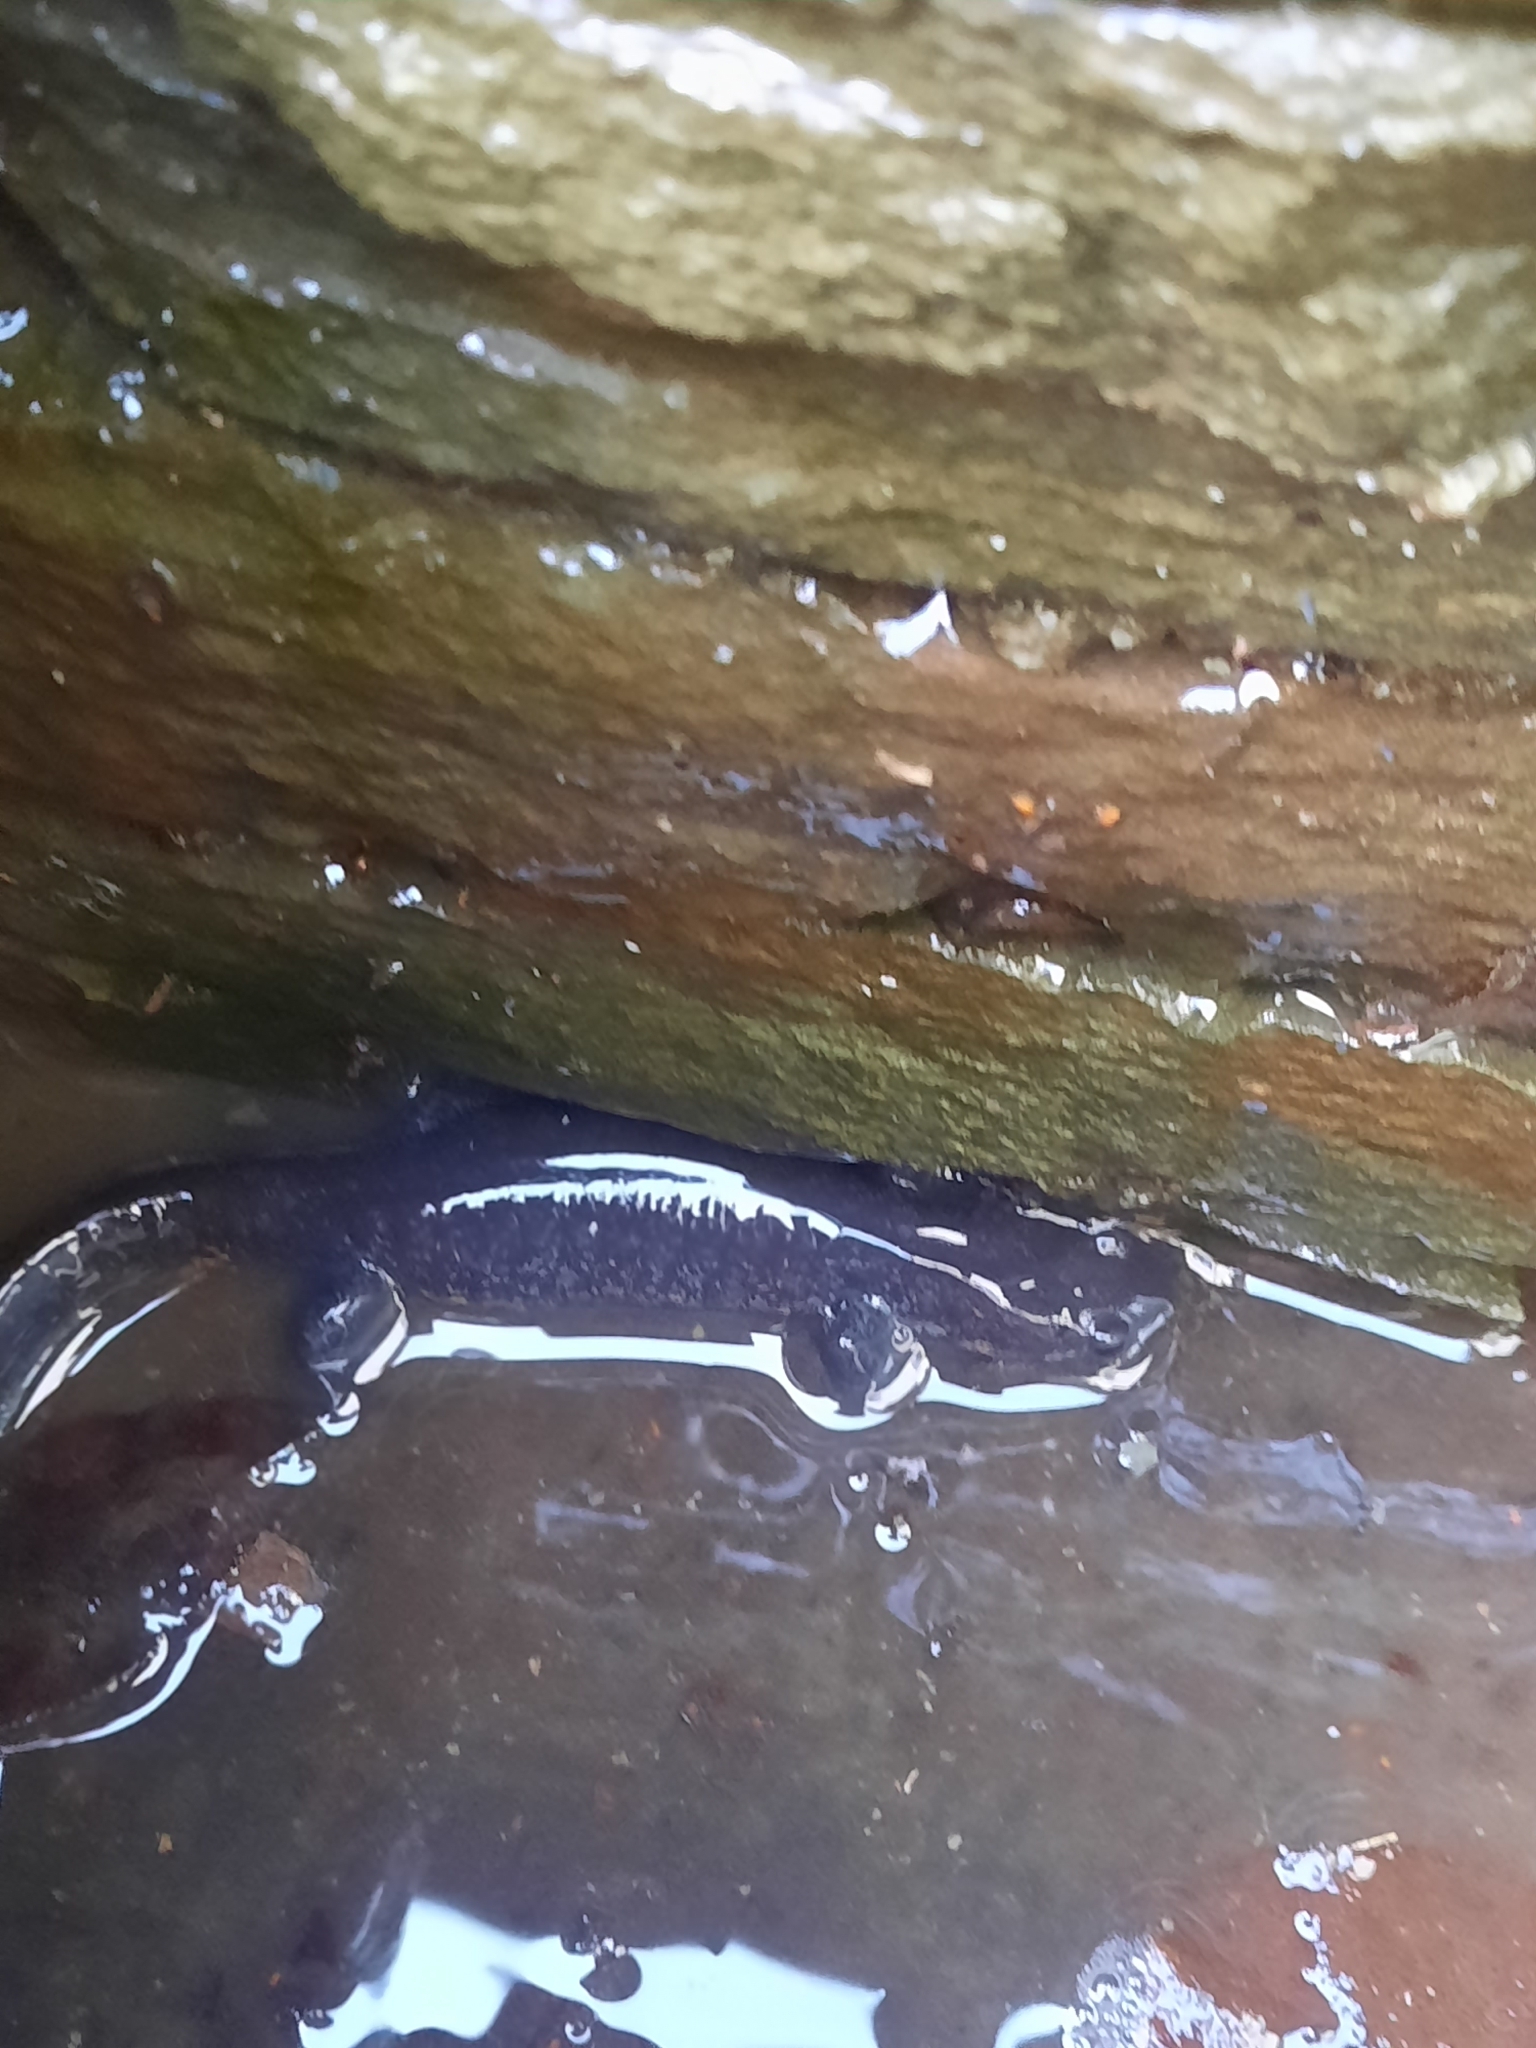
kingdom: Animalia
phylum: Chordata
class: Amphibia
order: Caudata
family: Ambystomatidae
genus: Ambystoma
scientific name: Ambystoma unisexual
